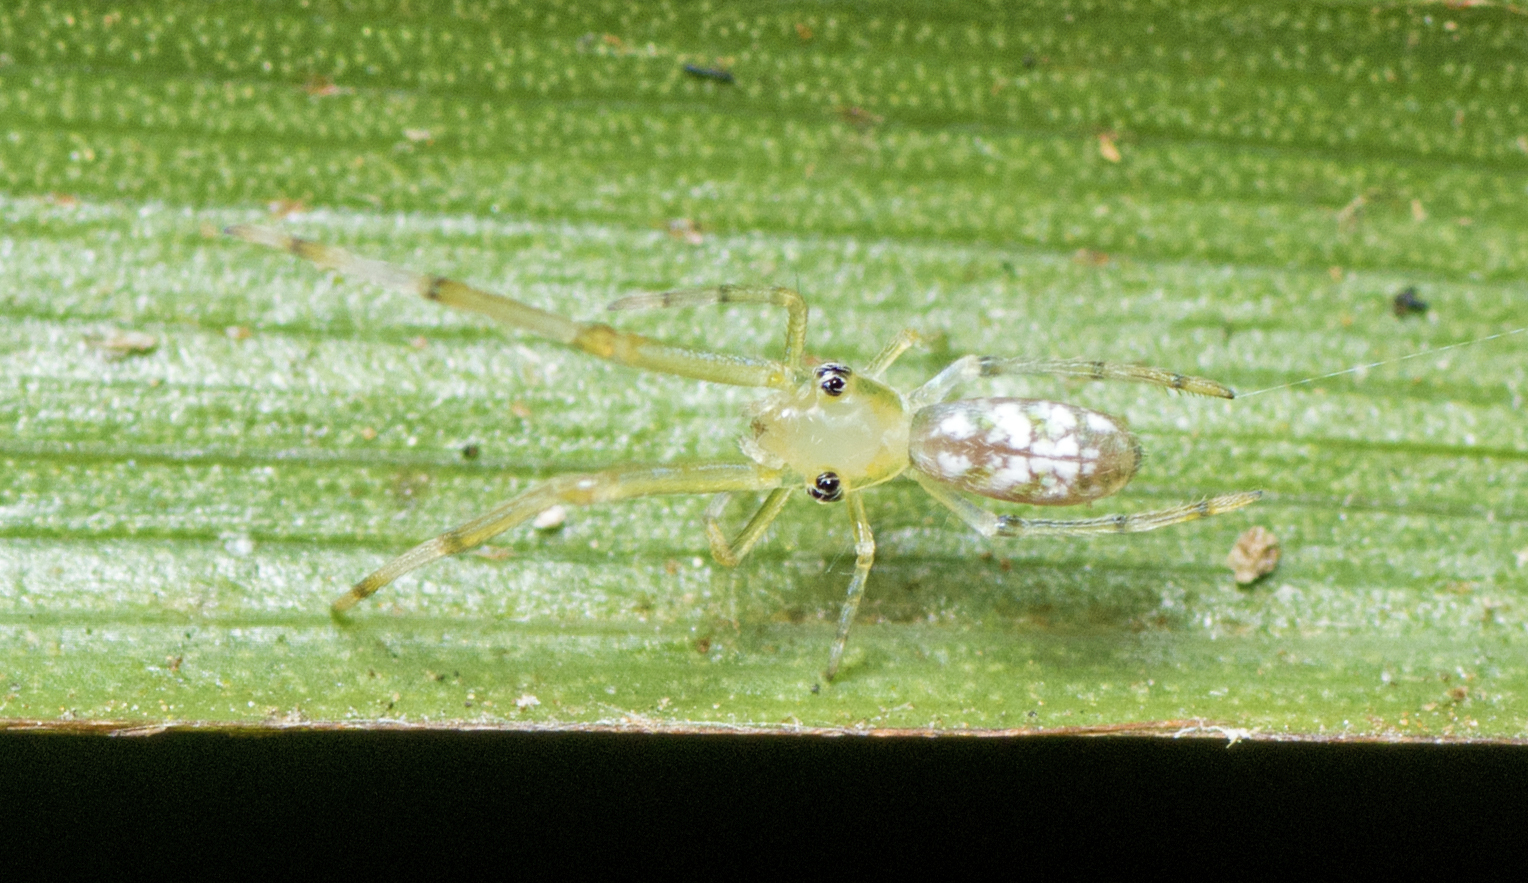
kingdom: Animalia
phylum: Arthropoda
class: Arachnida
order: Araneae
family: Uloboridae
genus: Miagrammopes
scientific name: Miagrammopes flavus
